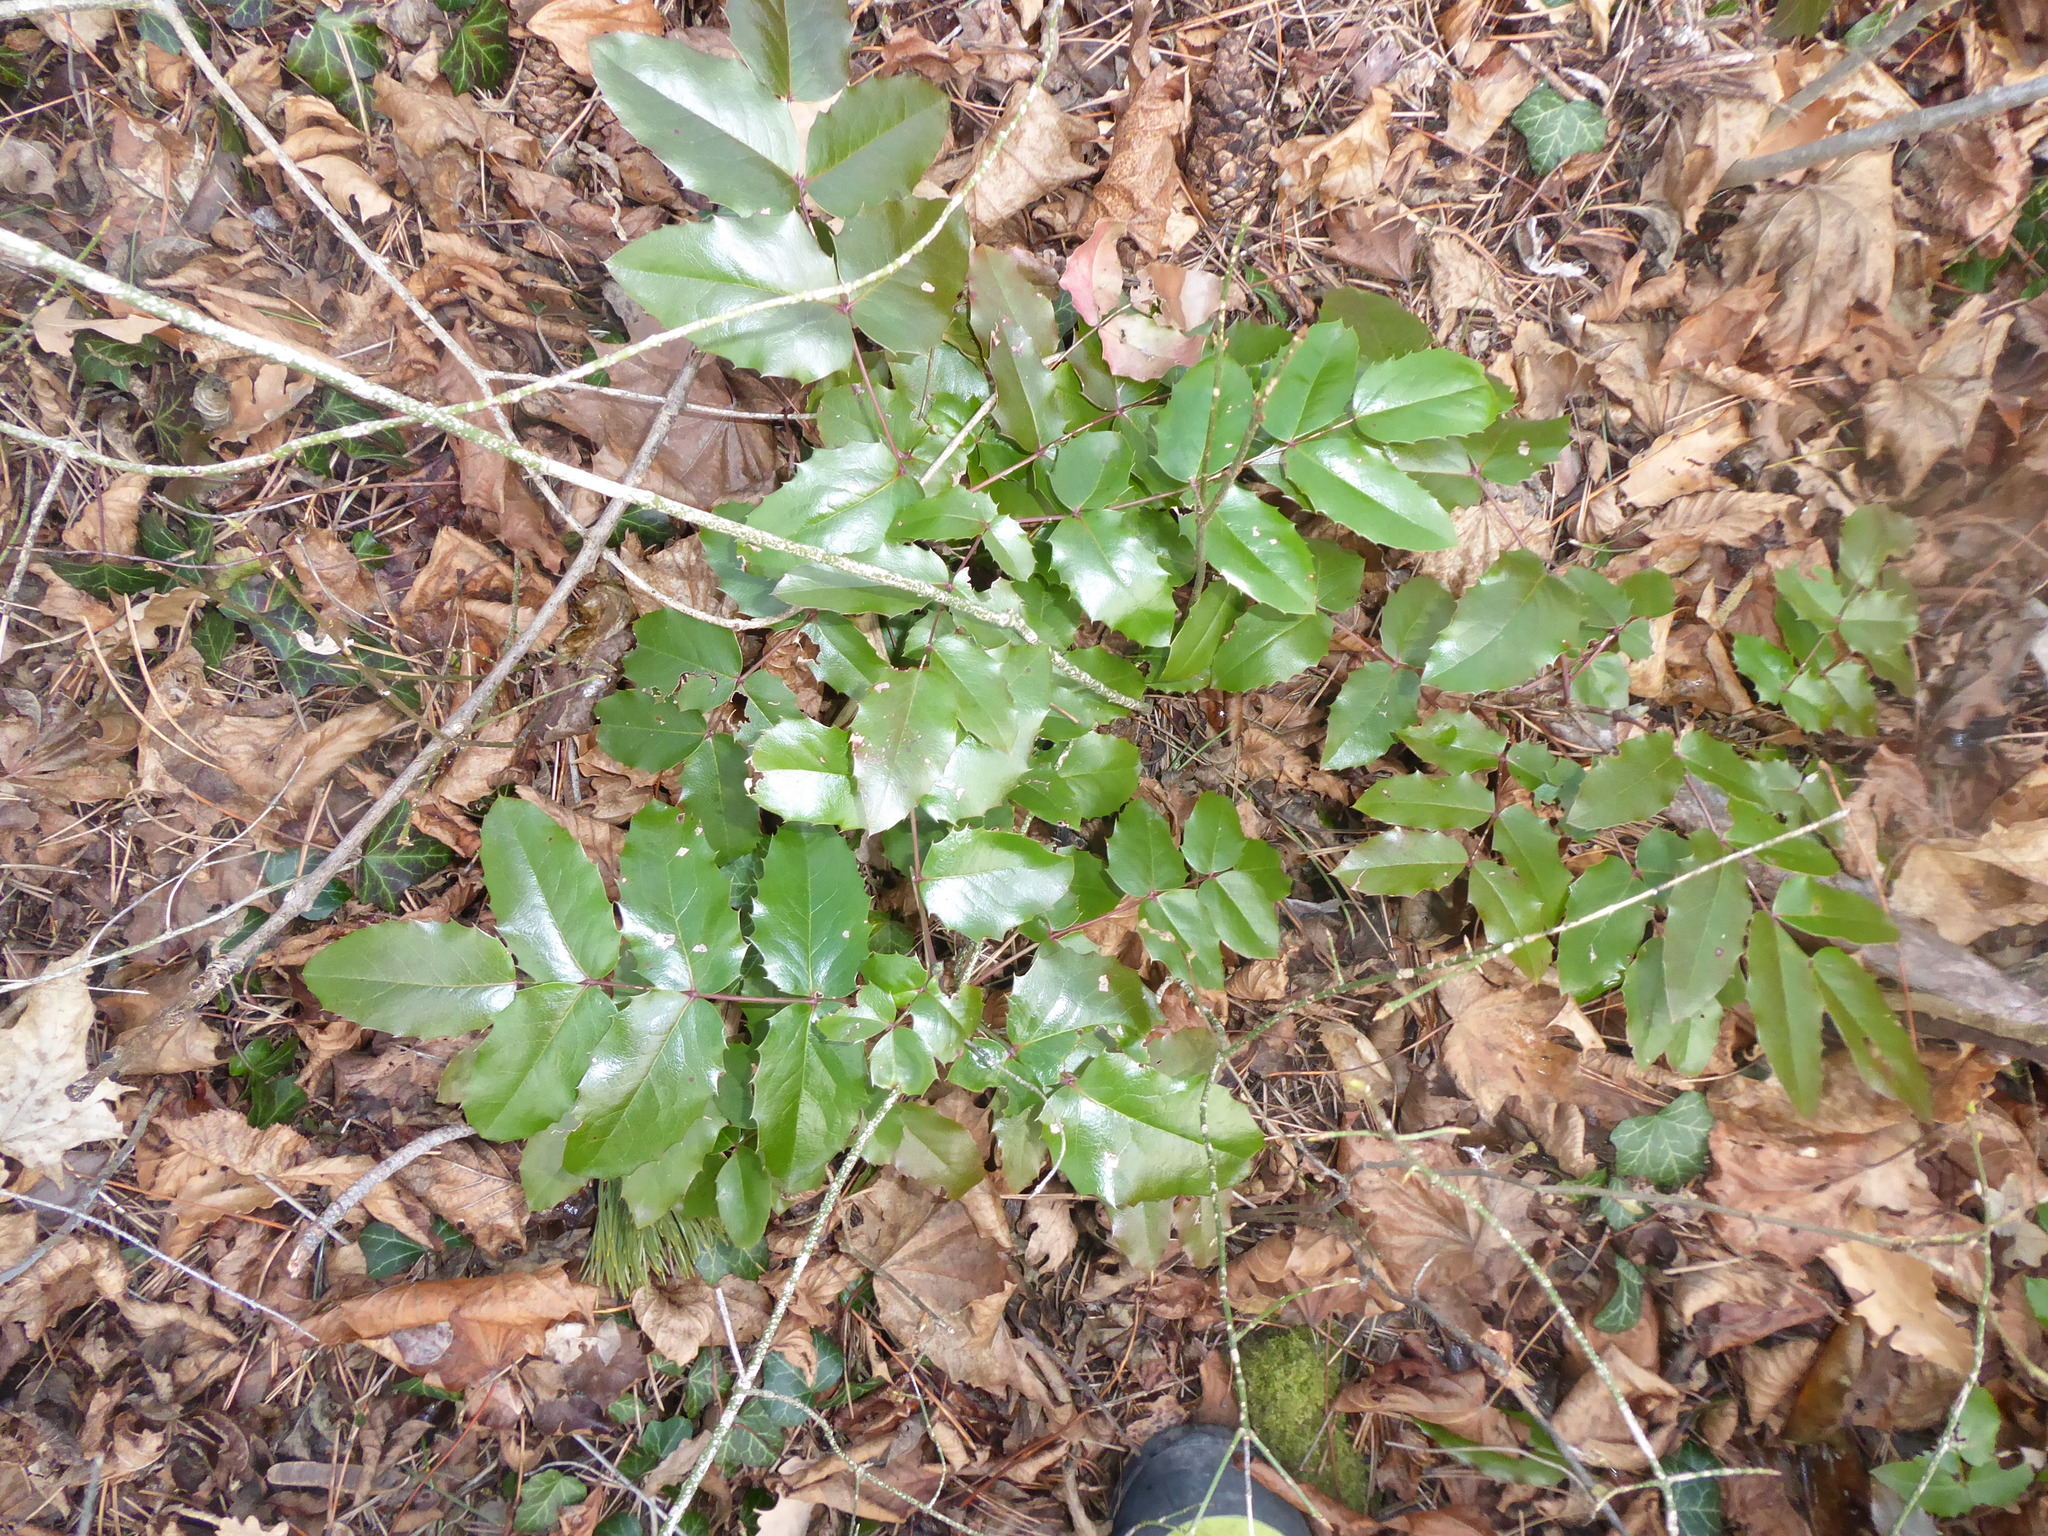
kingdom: Plantae
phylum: Tracheophyta
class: Magnoliopsida
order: Ranunculales
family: Berberidaceae
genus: Mahonia
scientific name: Mahonia aquifolium
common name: Oregon-grape
